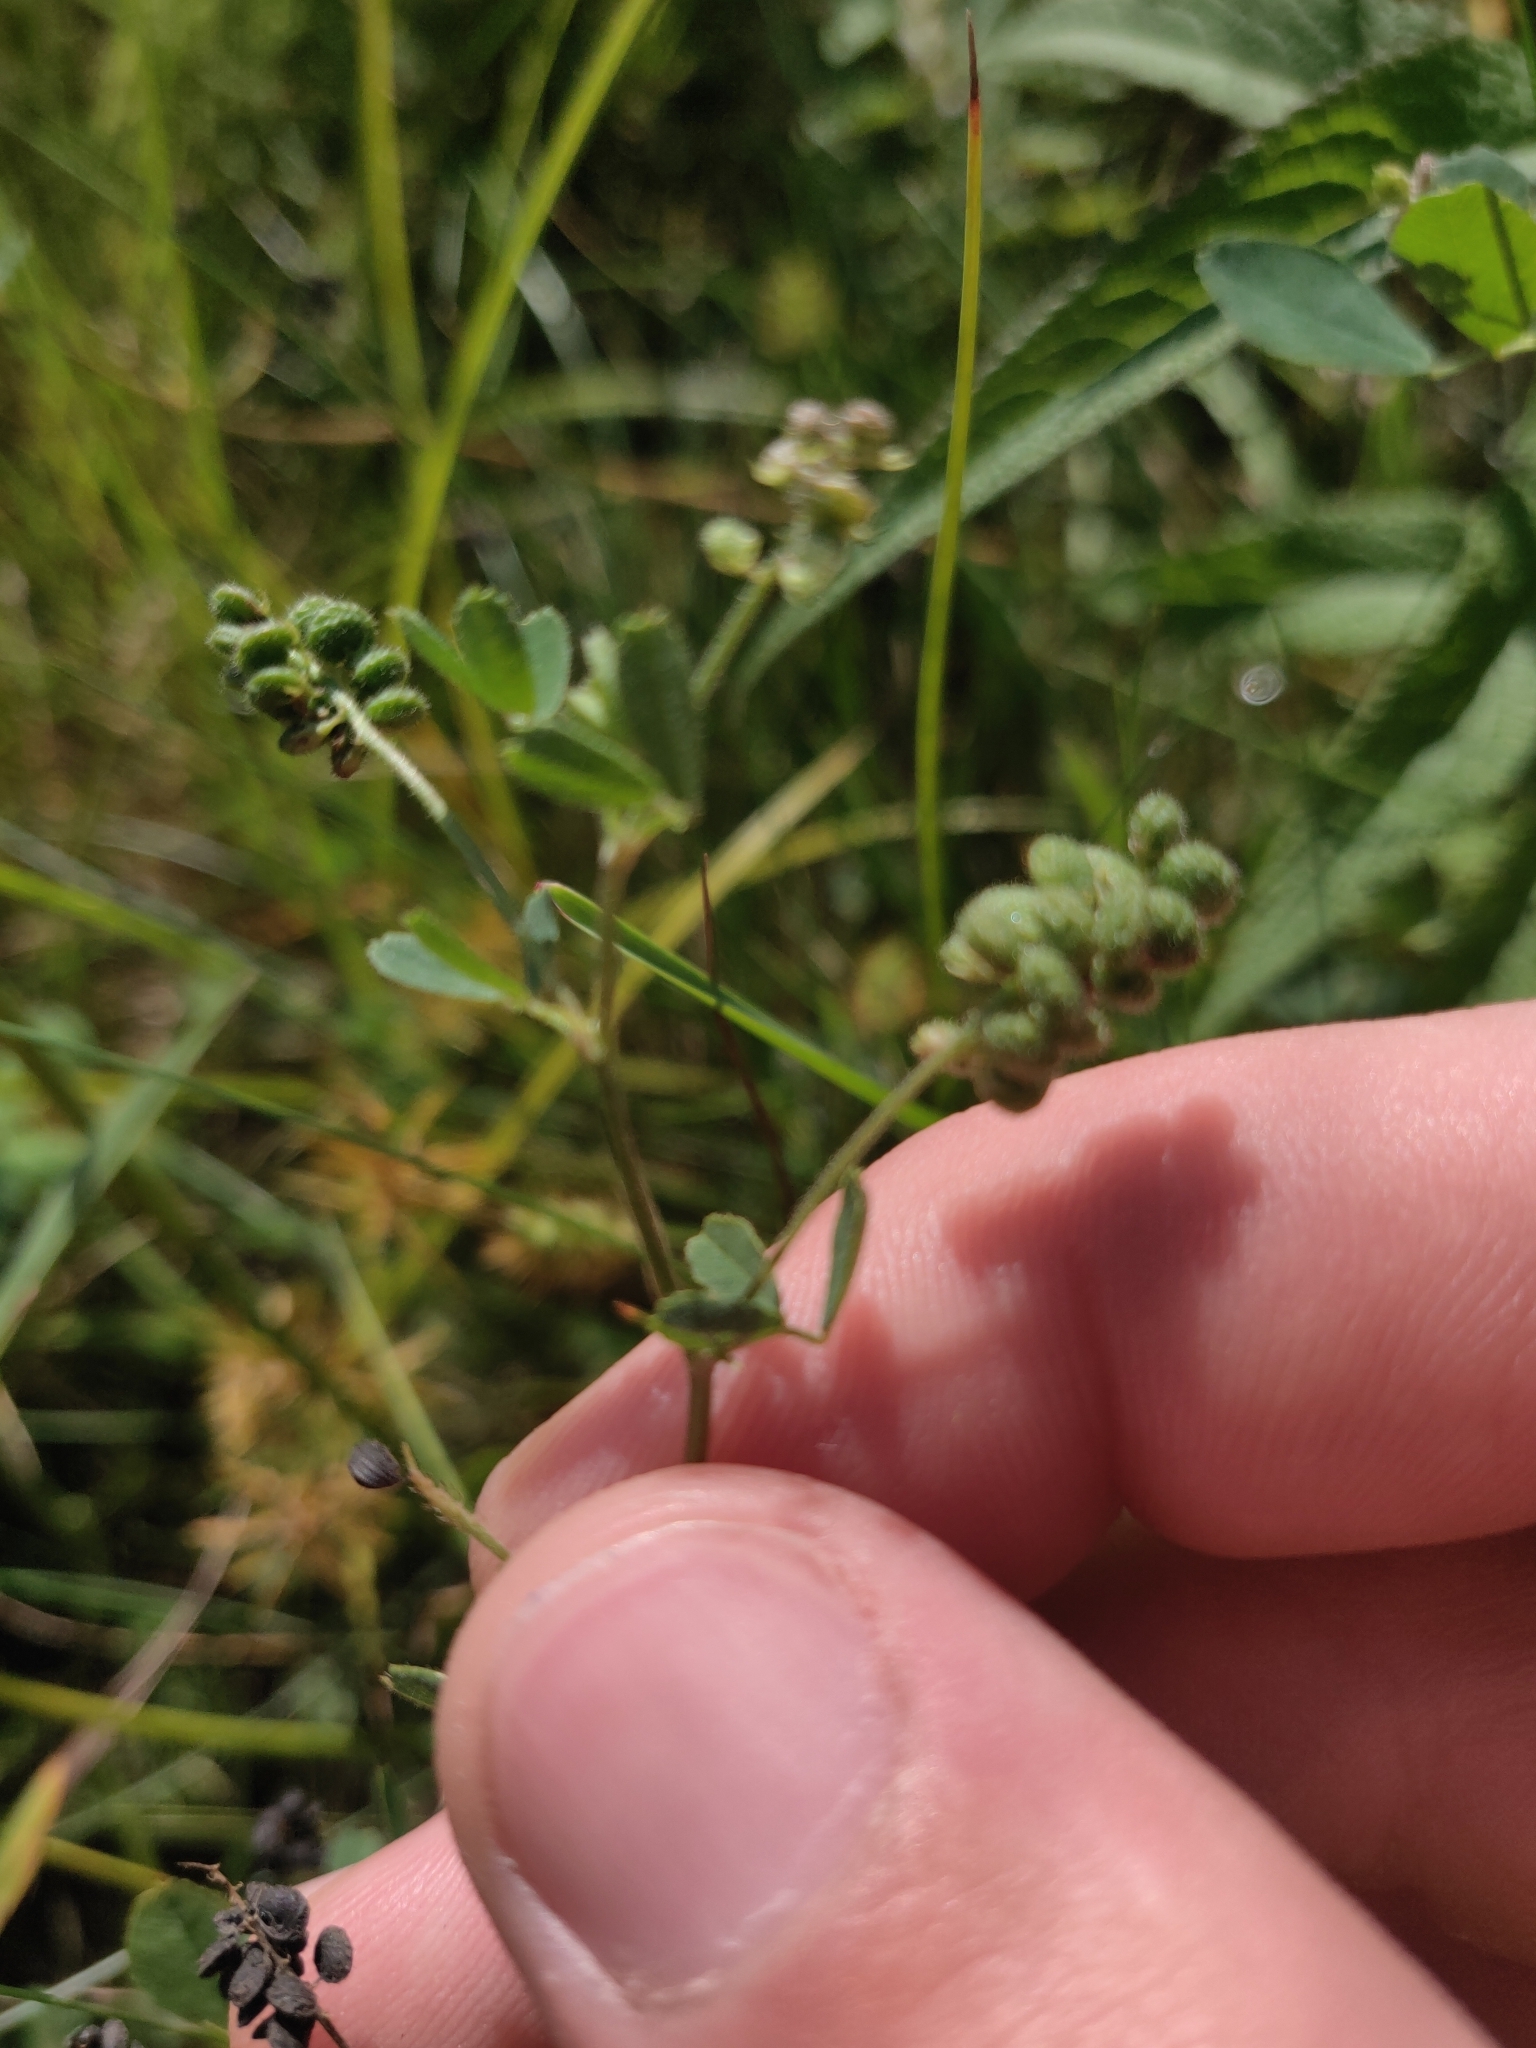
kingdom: Plantae
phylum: Tracheophyta
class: Magnoliopsida
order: Fabales
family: Fabaceae
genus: Medicago
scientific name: Medicago lupulina
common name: Black medick
